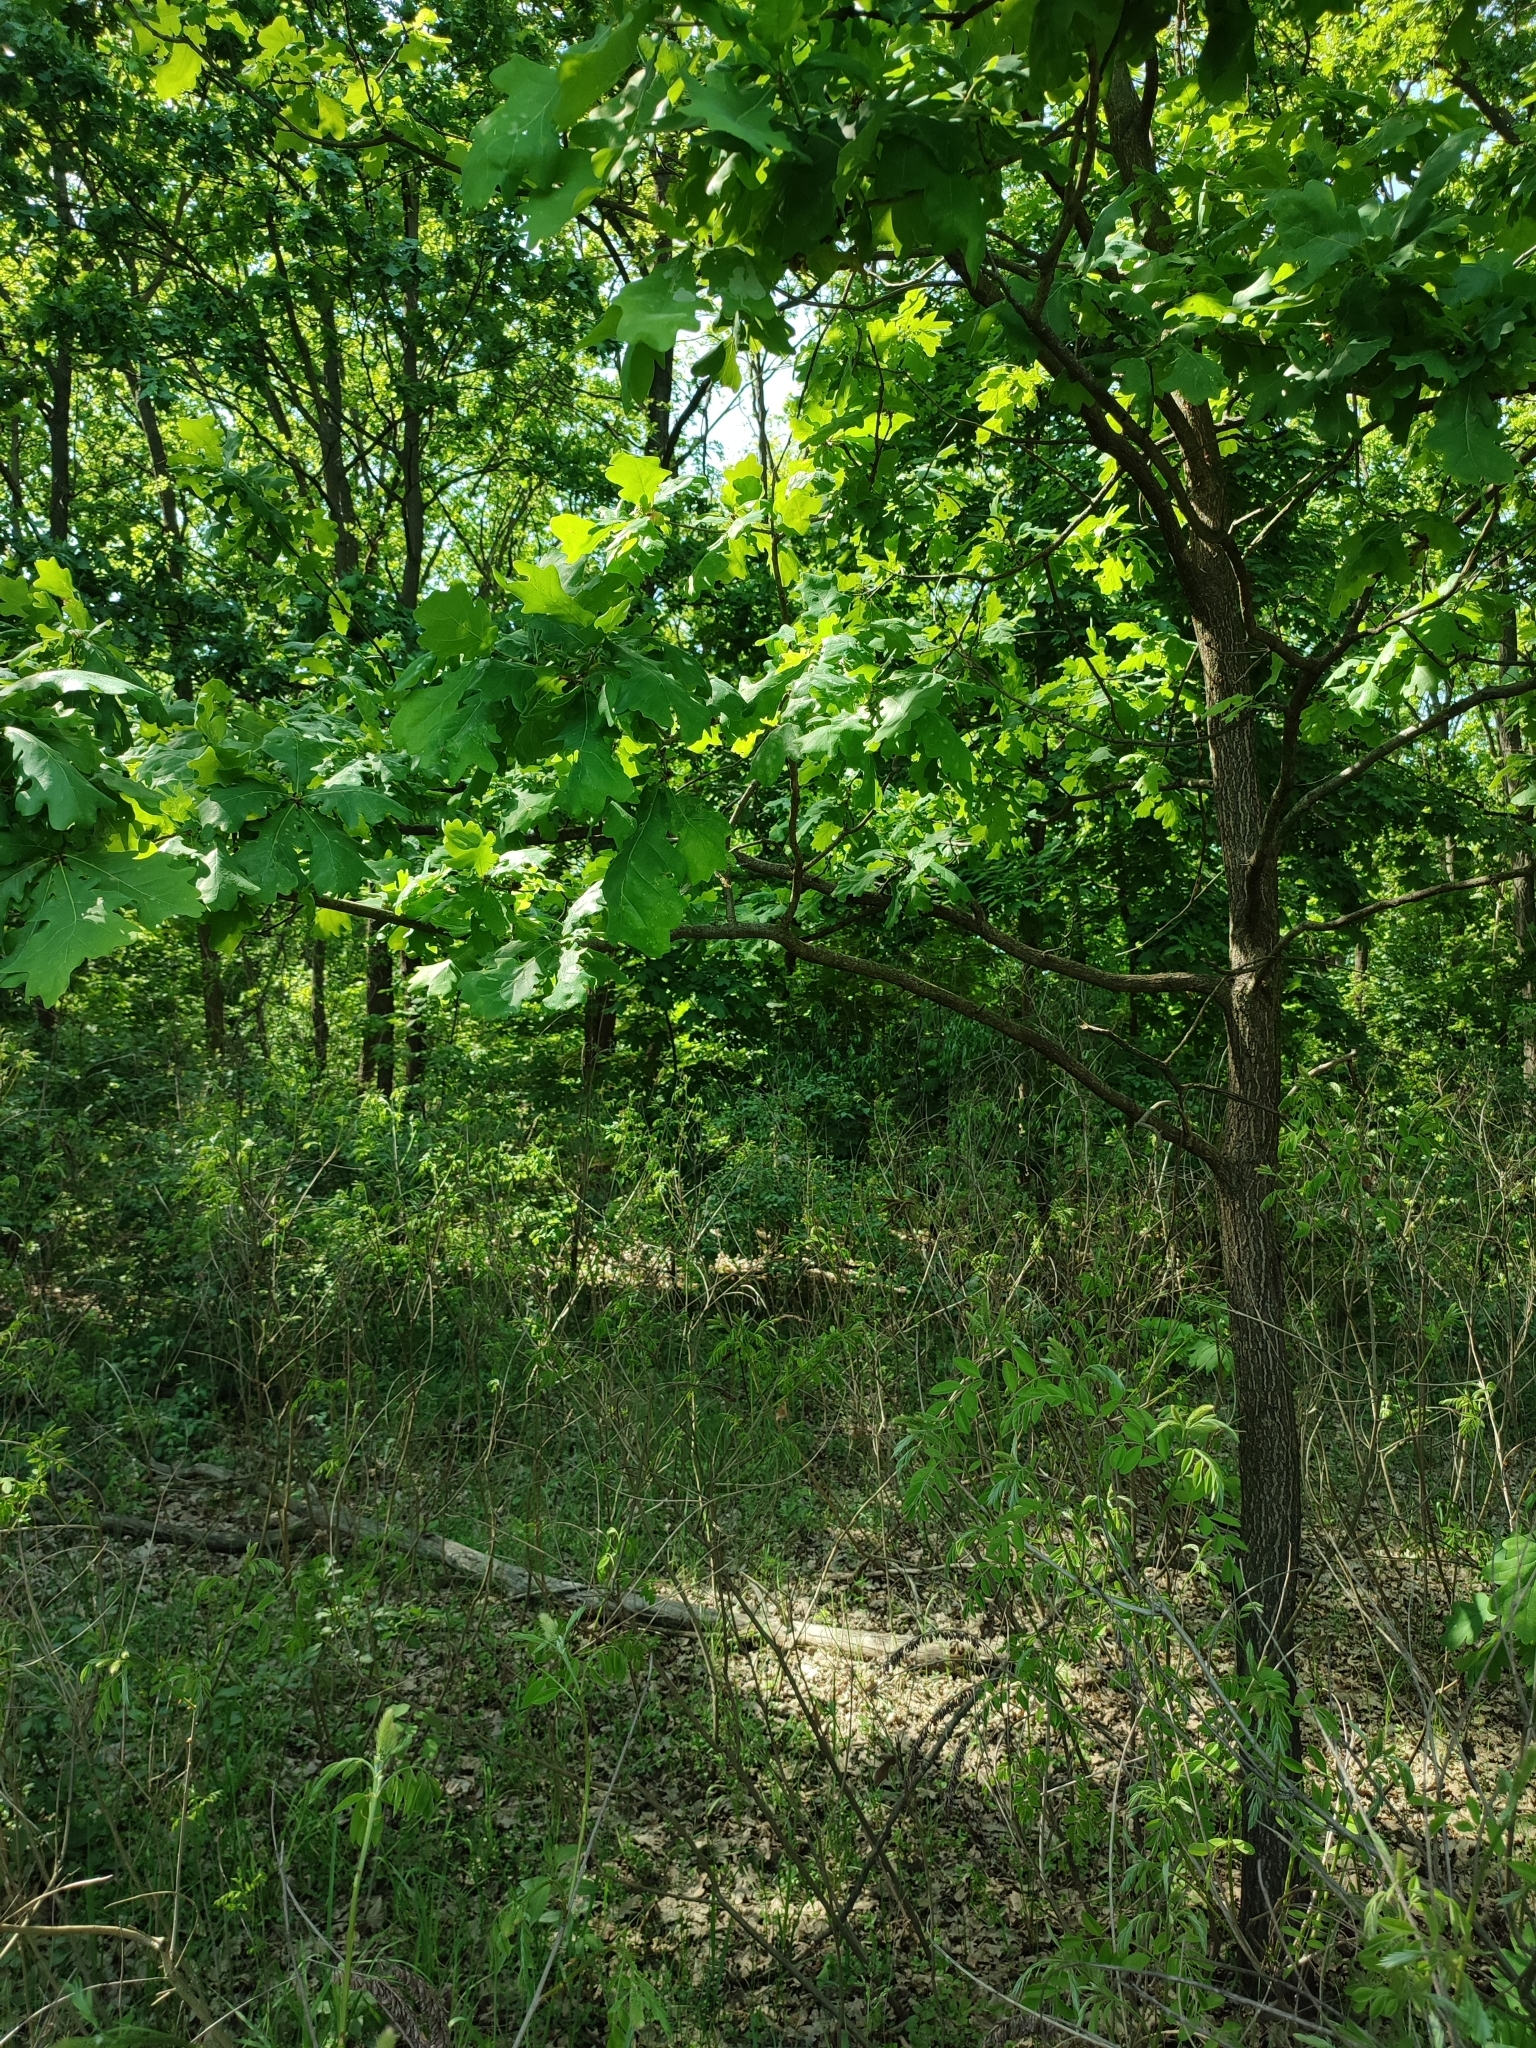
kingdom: Plantae
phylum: Tracheophyta
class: Magnoliopsida
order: Fagales
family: Fagaceae
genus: Quercus
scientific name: Quercus robur
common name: Pedunculate oak
